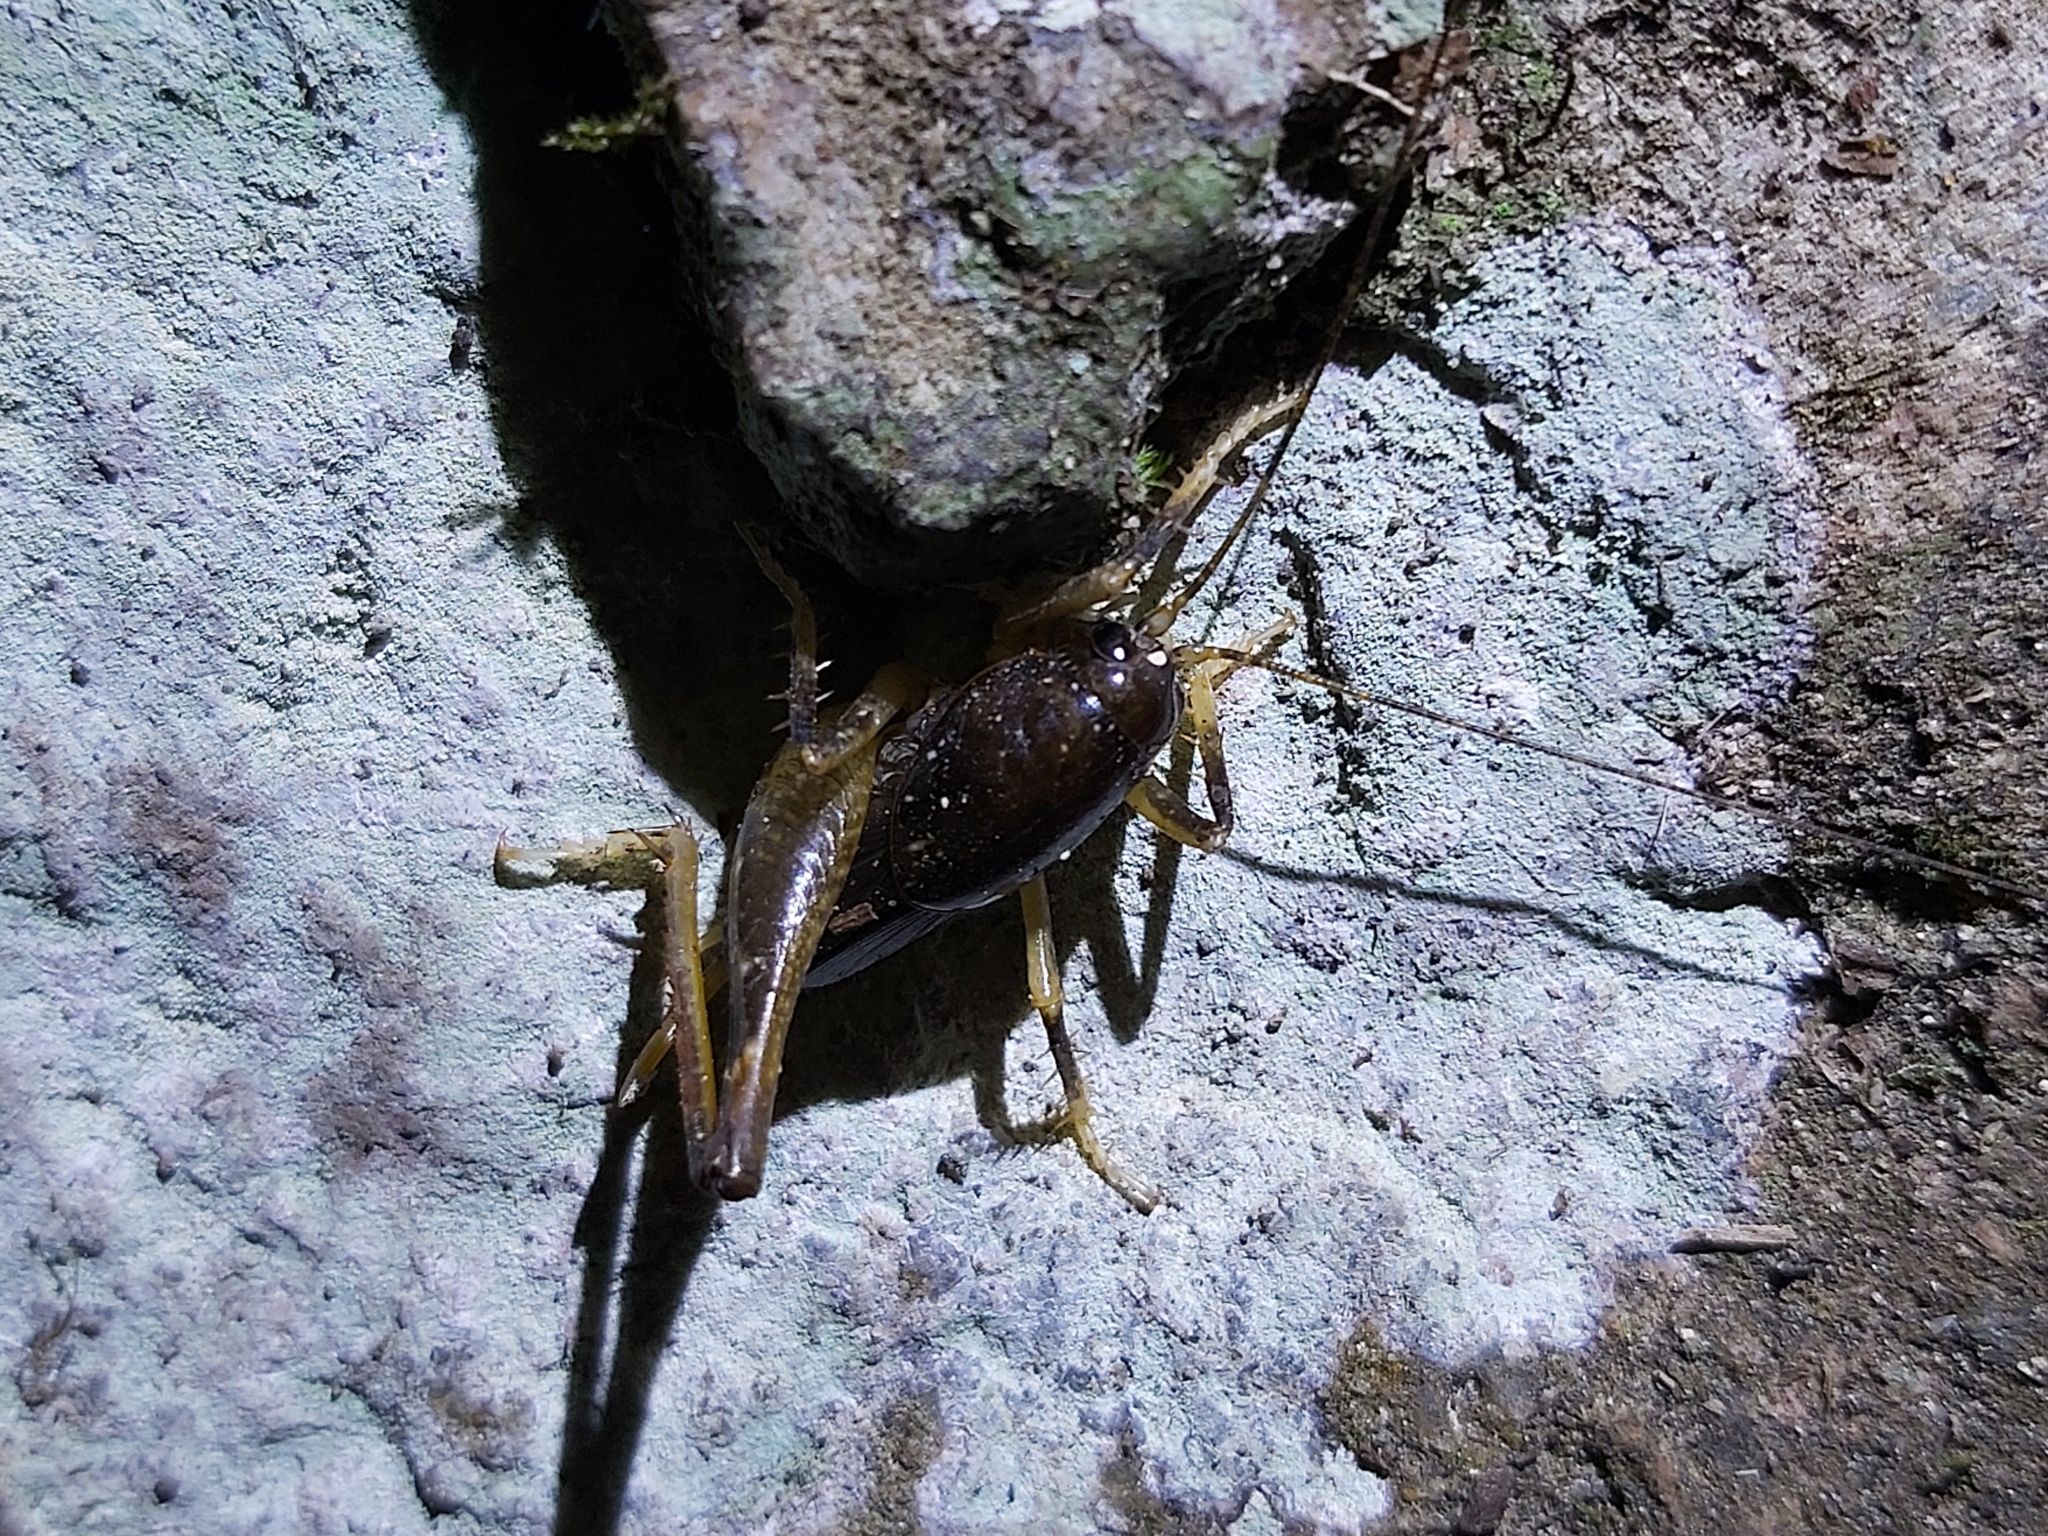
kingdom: Animalia
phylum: Arthropoda
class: Insecta
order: Orthoptera
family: Anostostomatidae
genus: Transaevum
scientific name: Transaevum laudatum
